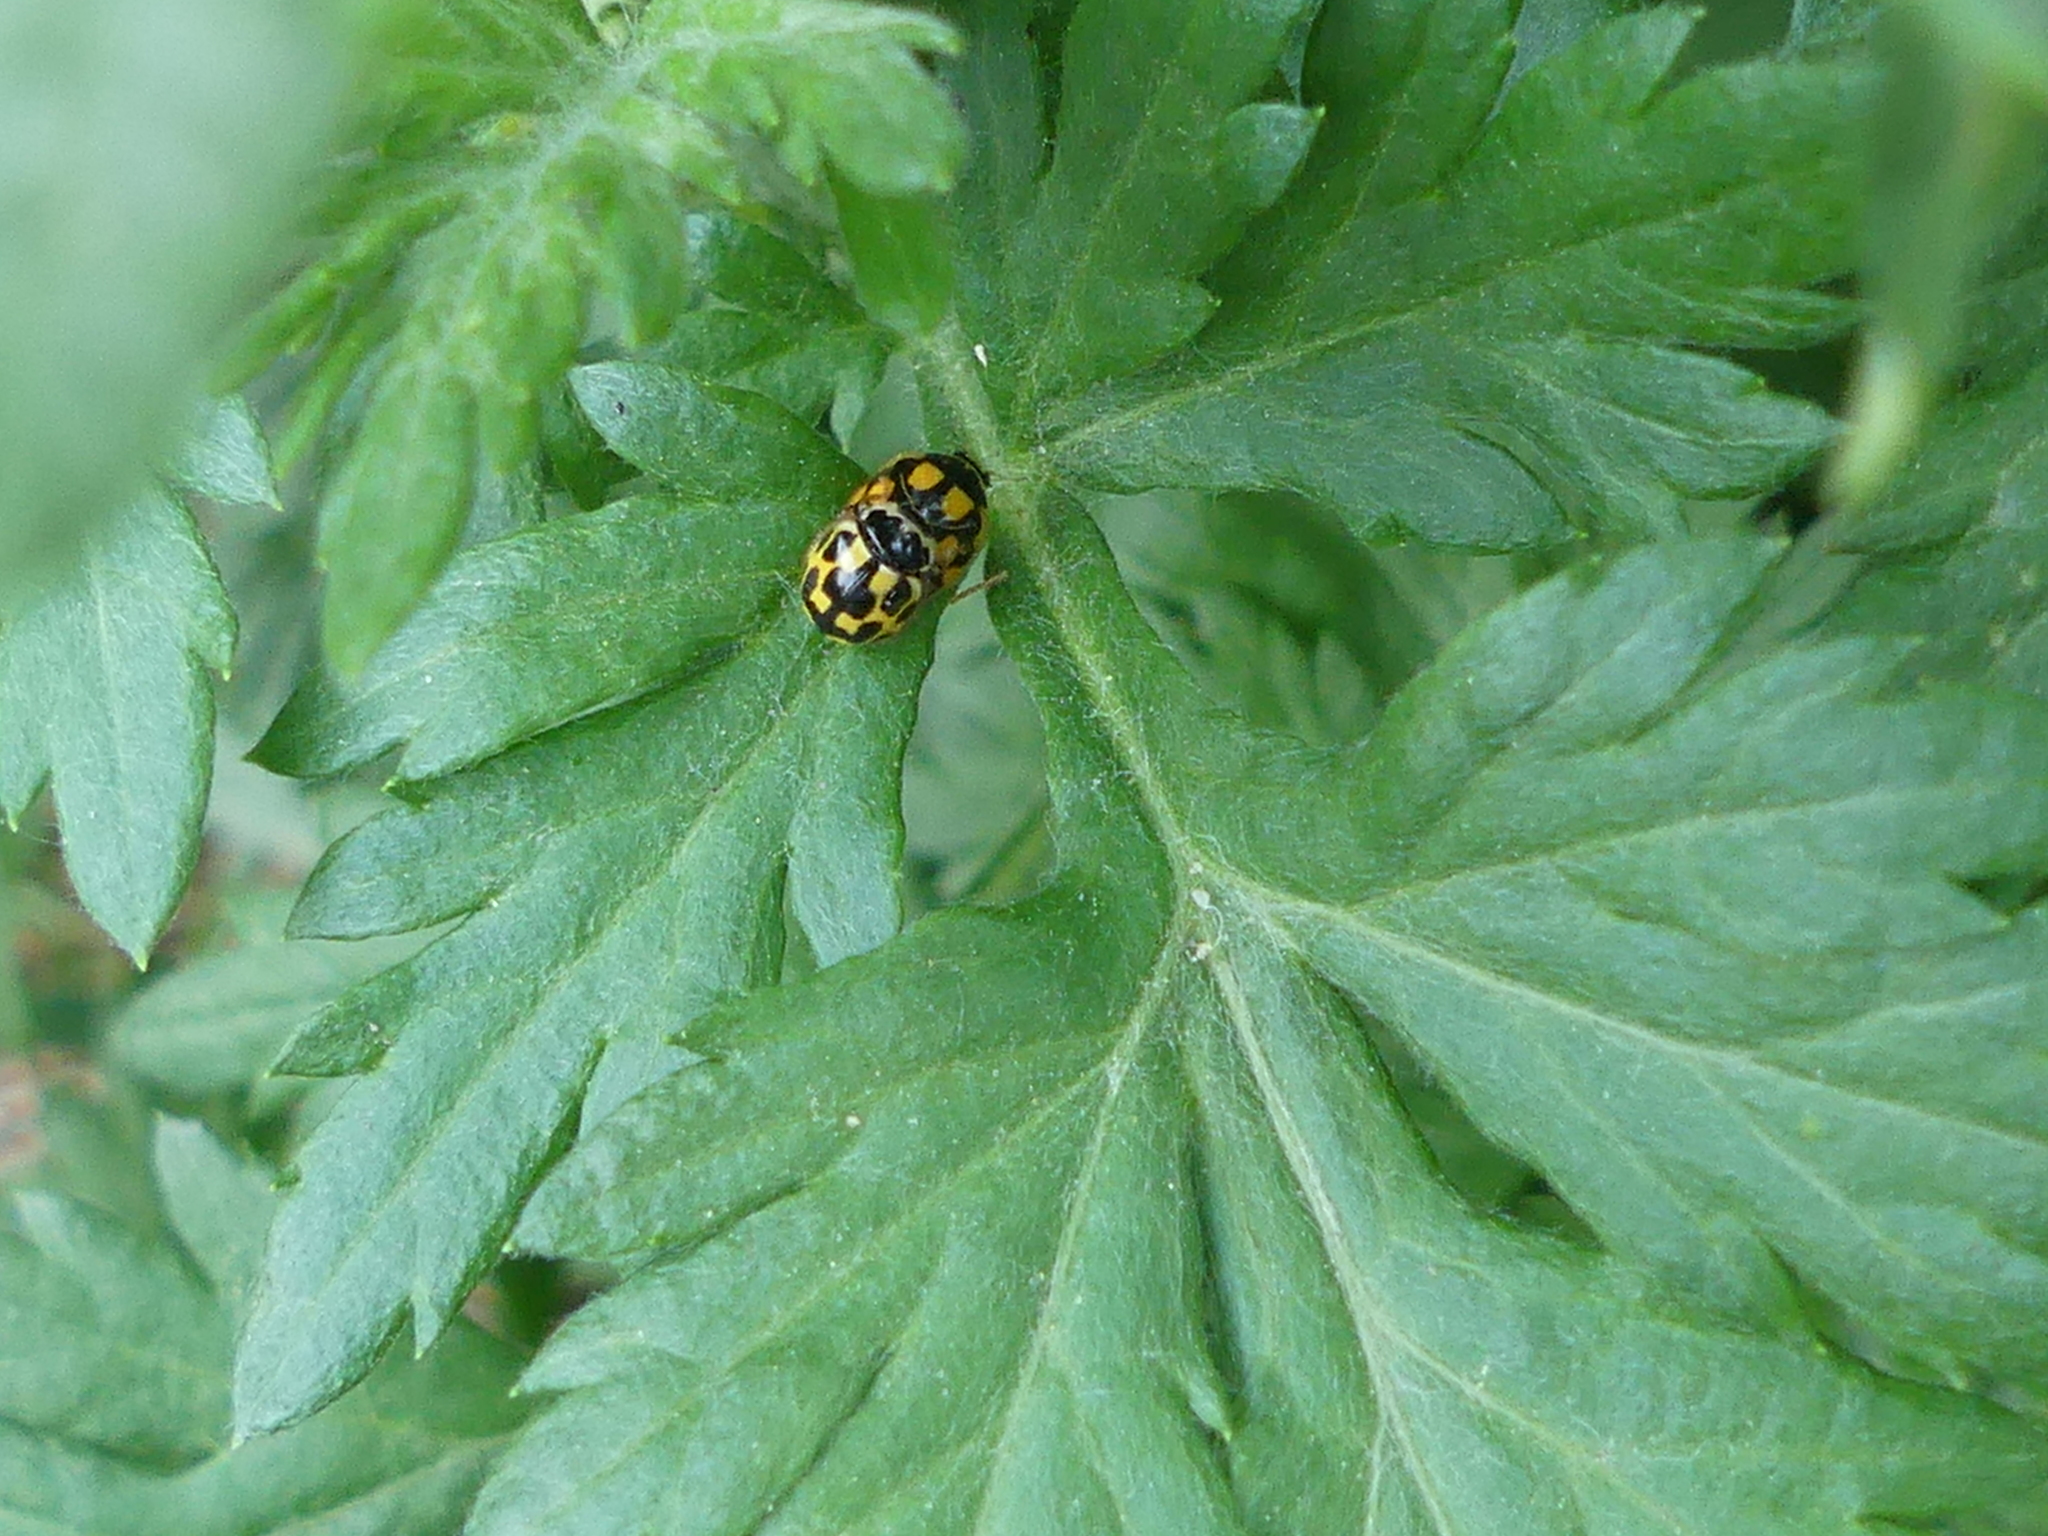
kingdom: Animalia
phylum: Arthropoda
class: Insecta
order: Coleoptera
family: Coccinellidae
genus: Propylaea
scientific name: Propylaea quatuordecimpunctata
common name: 14-spotted ladybird beetle
